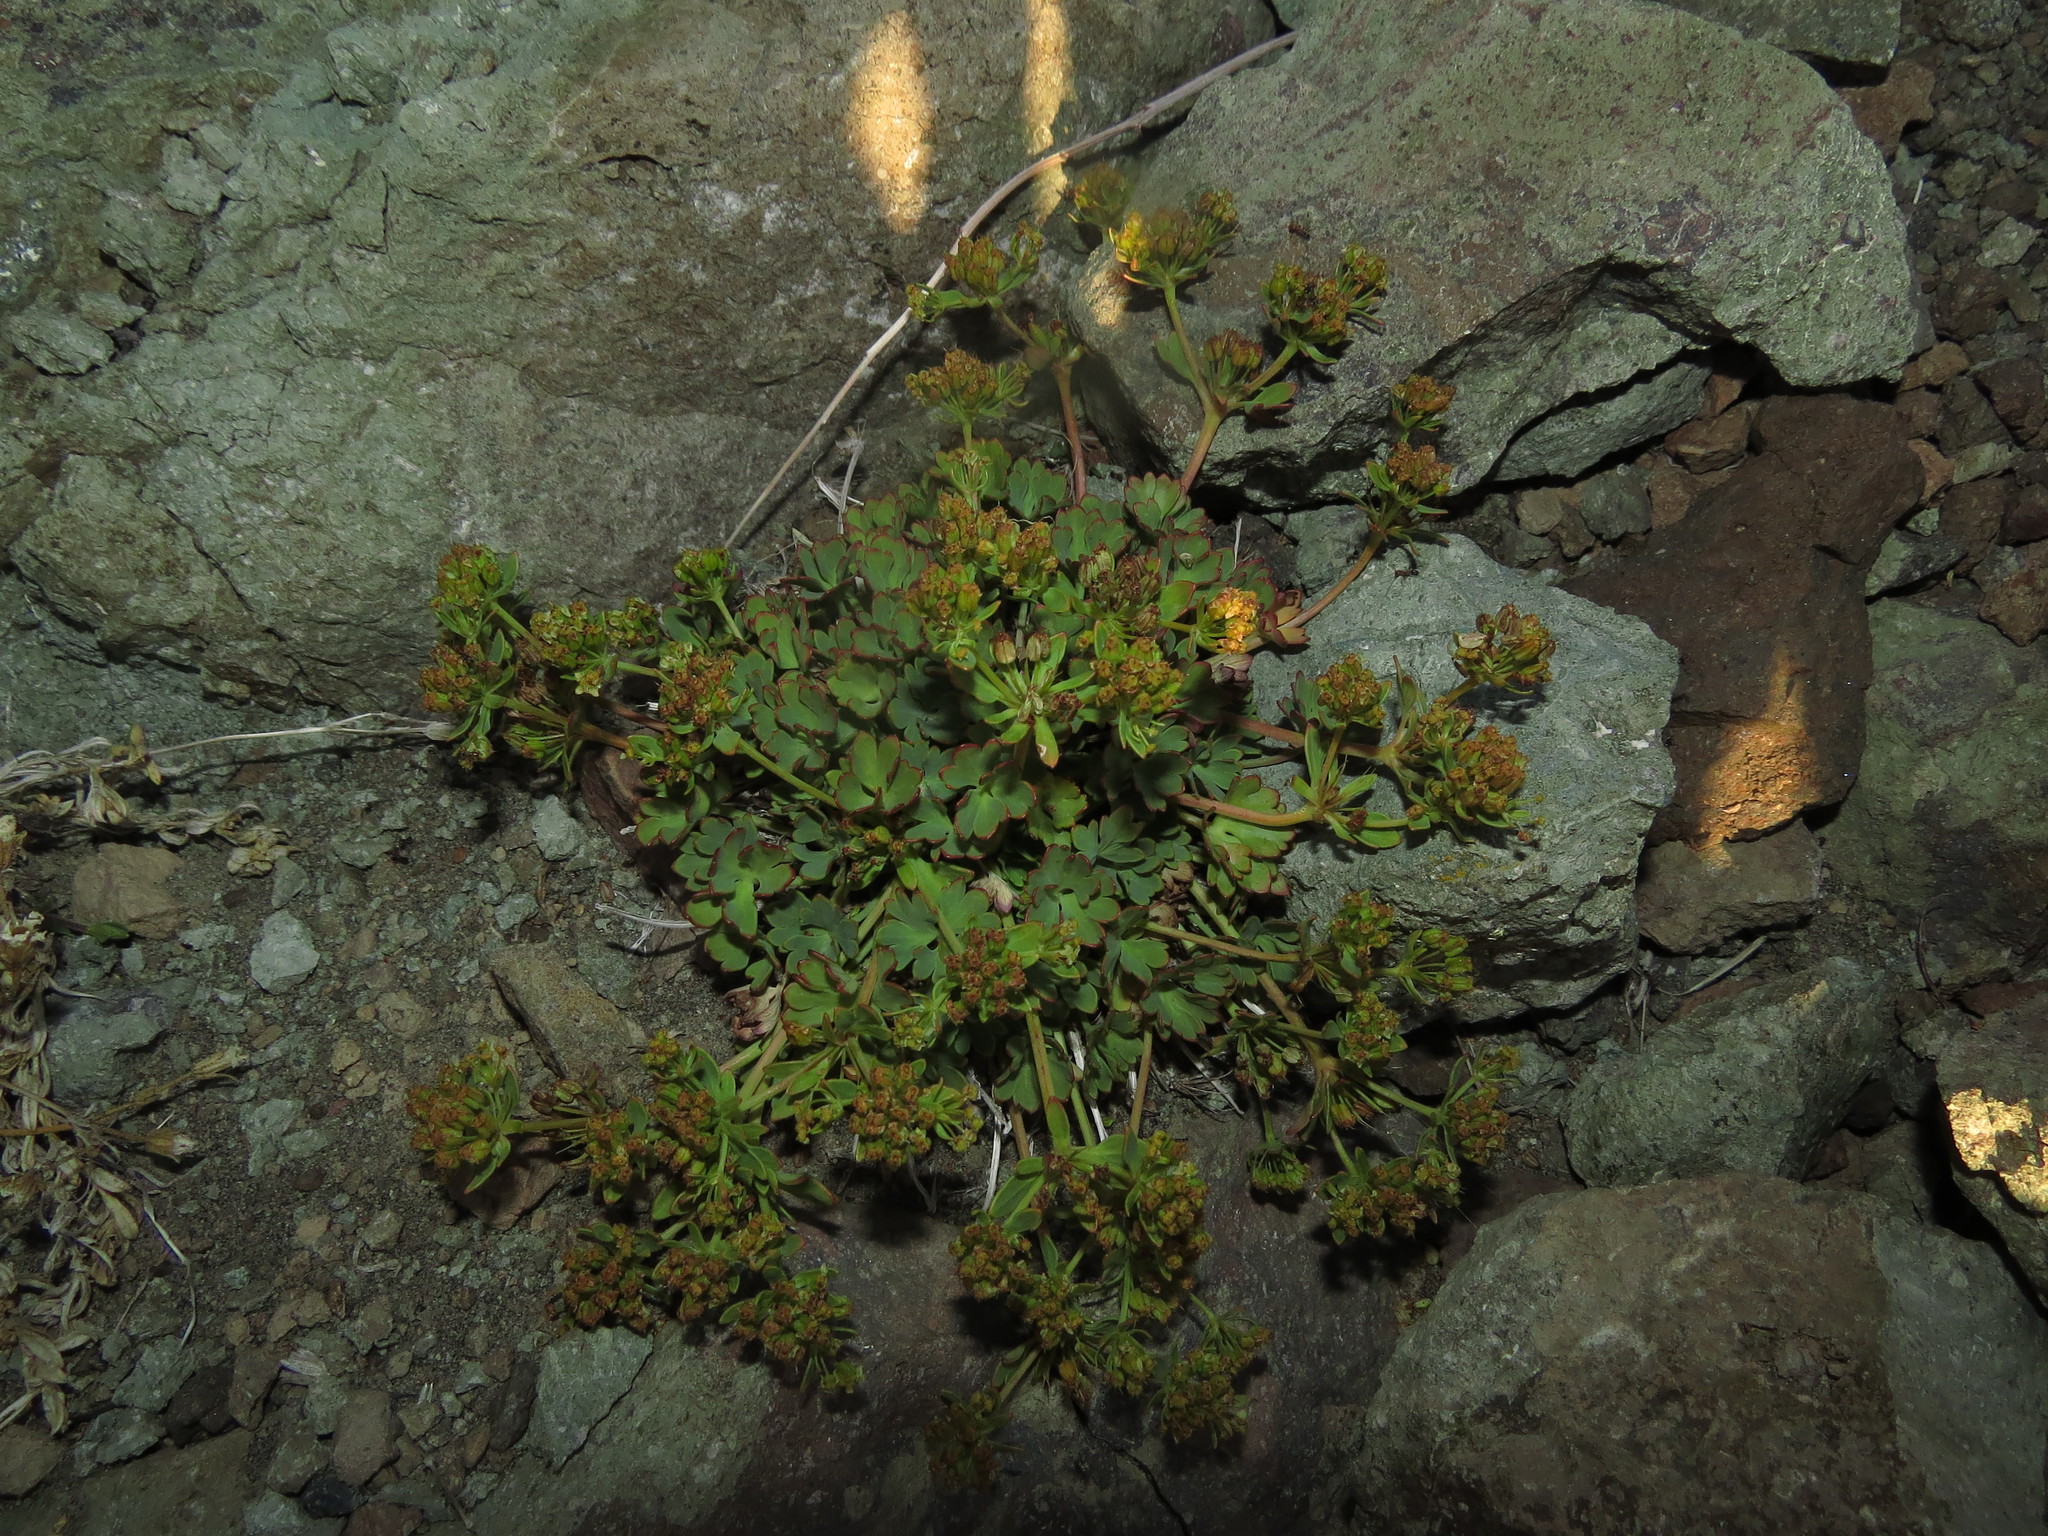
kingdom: Plantae
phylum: Tracheophyta
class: Magnoliopsida
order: Apiales
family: Apiaceae
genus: Azorella
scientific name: Azorella andina
